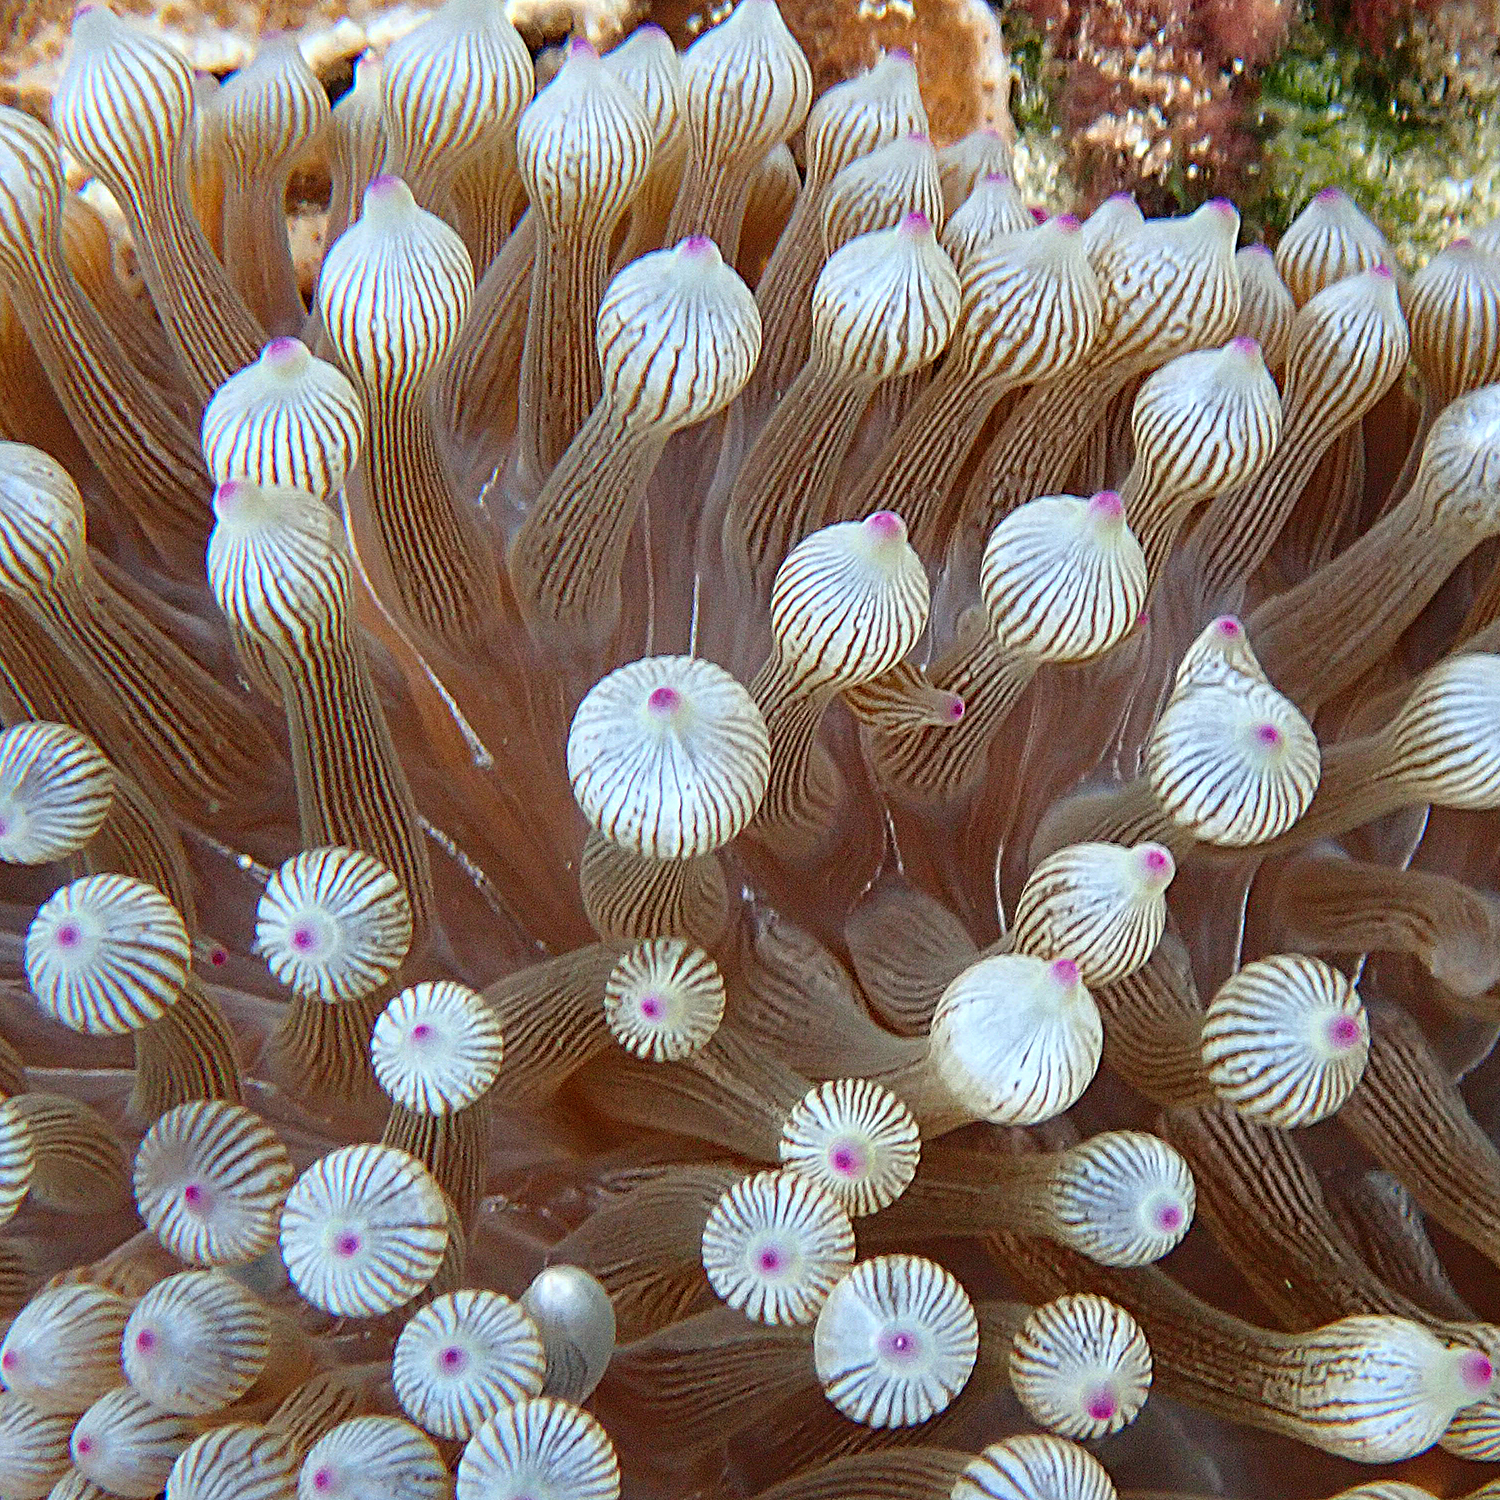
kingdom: Animalia
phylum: Cnidaria
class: Anthozoa
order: Actiniaria
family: Actiniidae
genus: Entacmaea
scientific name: Entacmaea quadricolor
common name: Bulb tentacle sea anemone
